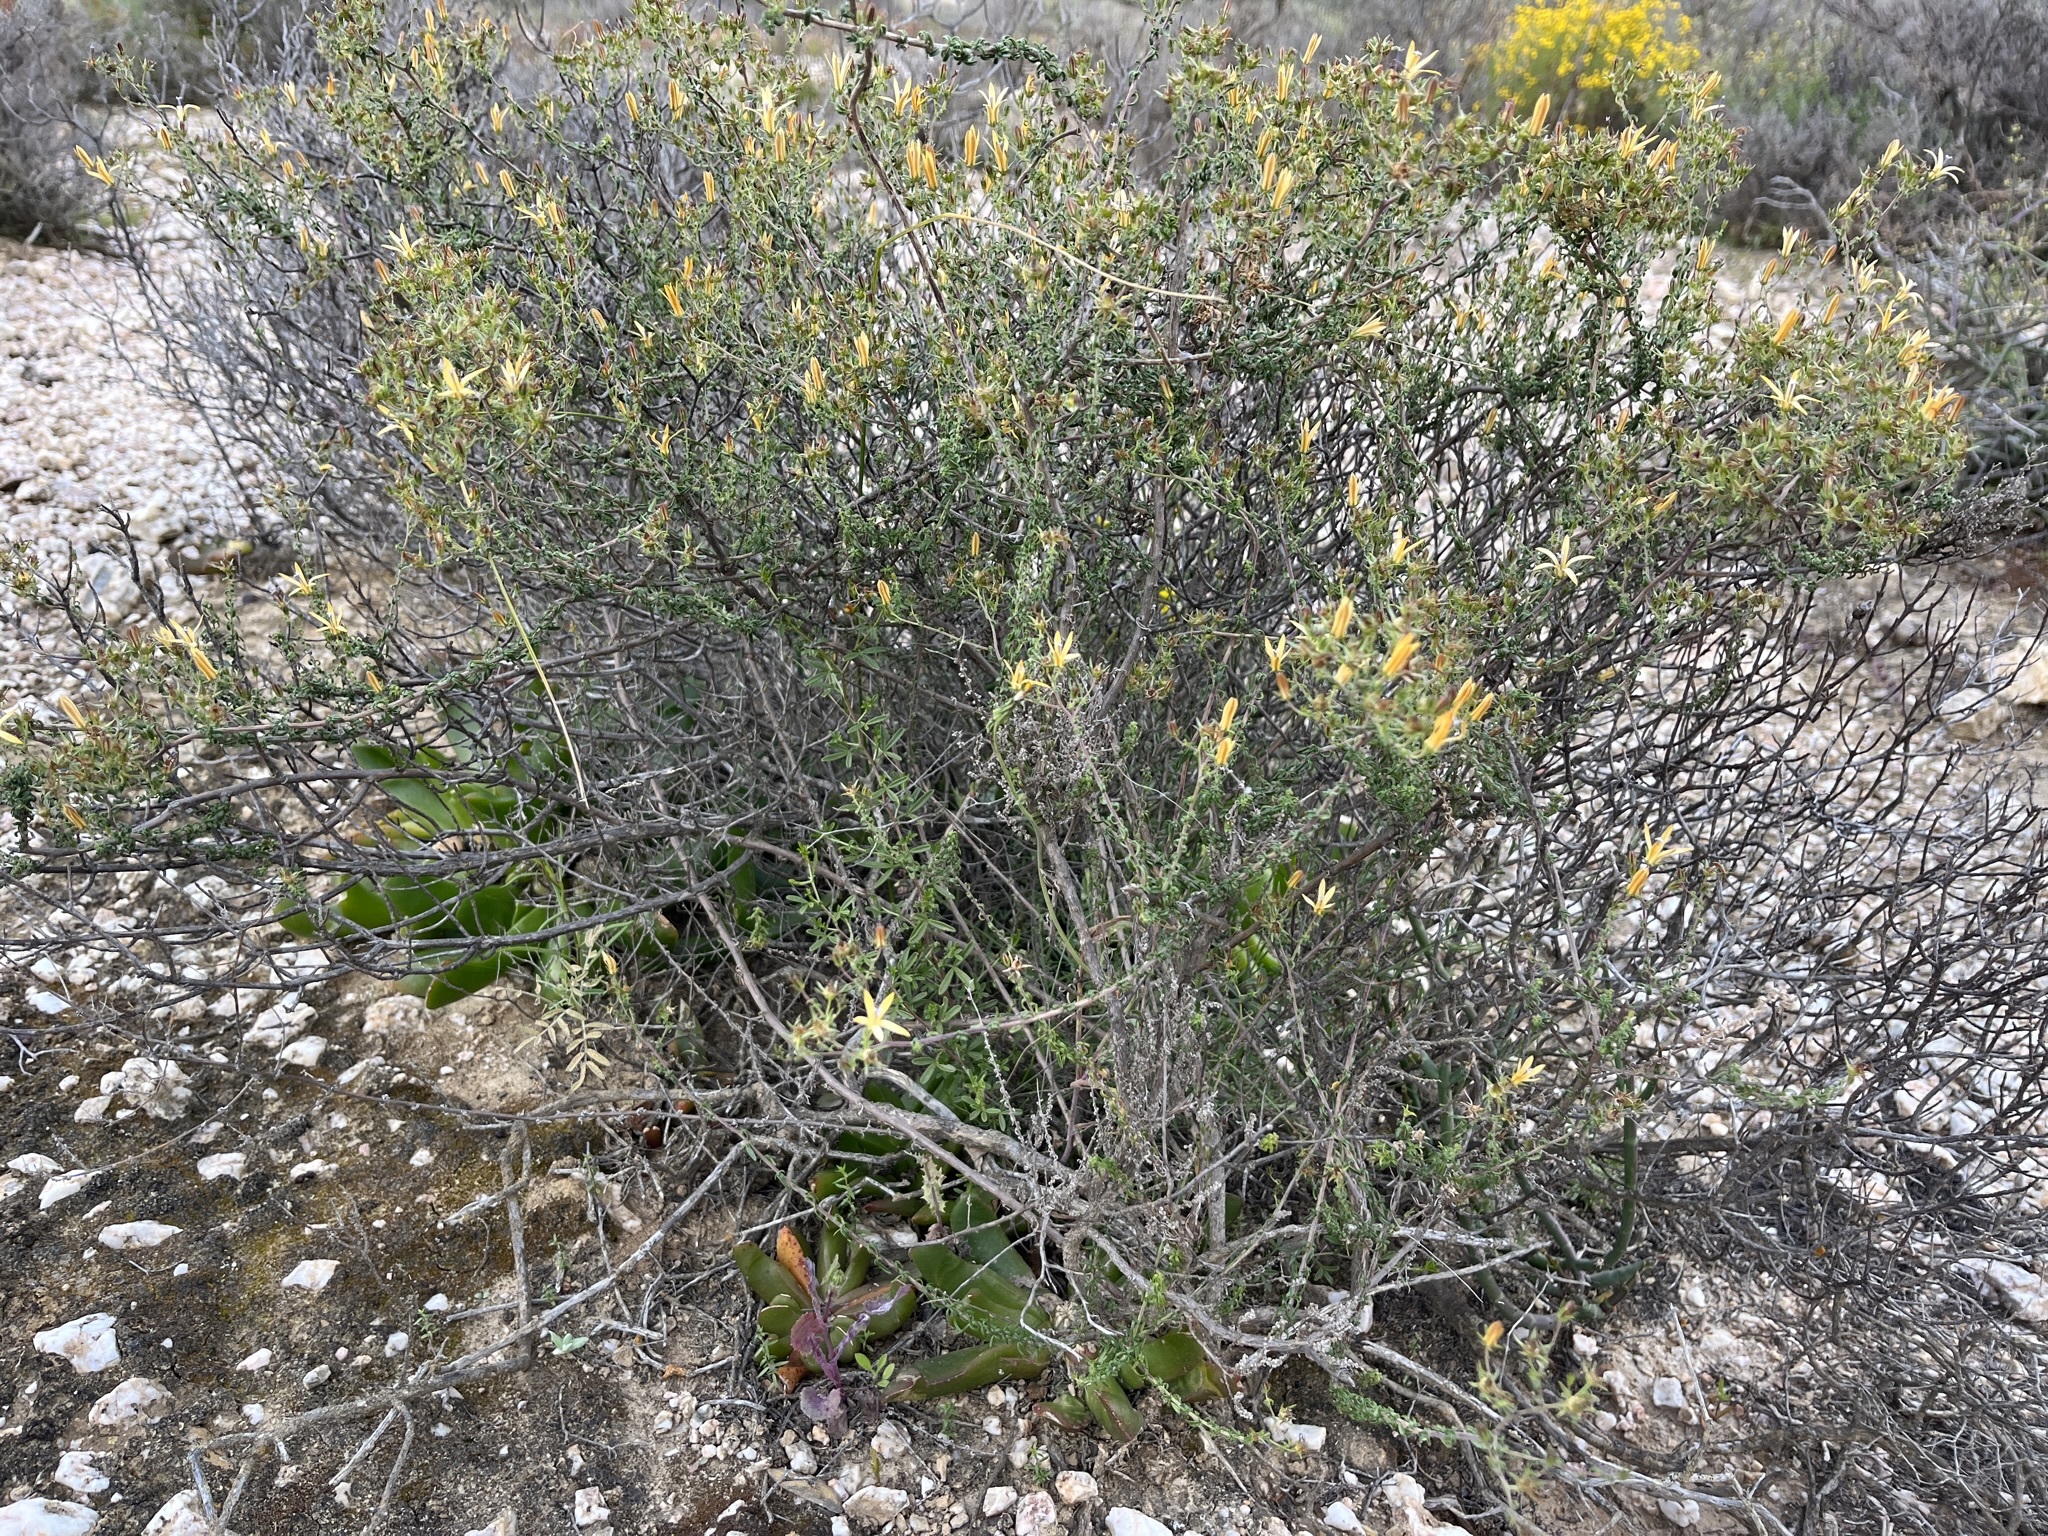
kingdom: Plantae
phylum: Tracheophyta
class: Magnoliopsida
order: Asterales
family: Campanulaceae
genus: Wahlenbergia
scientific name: Wahlenbergia nodosa
